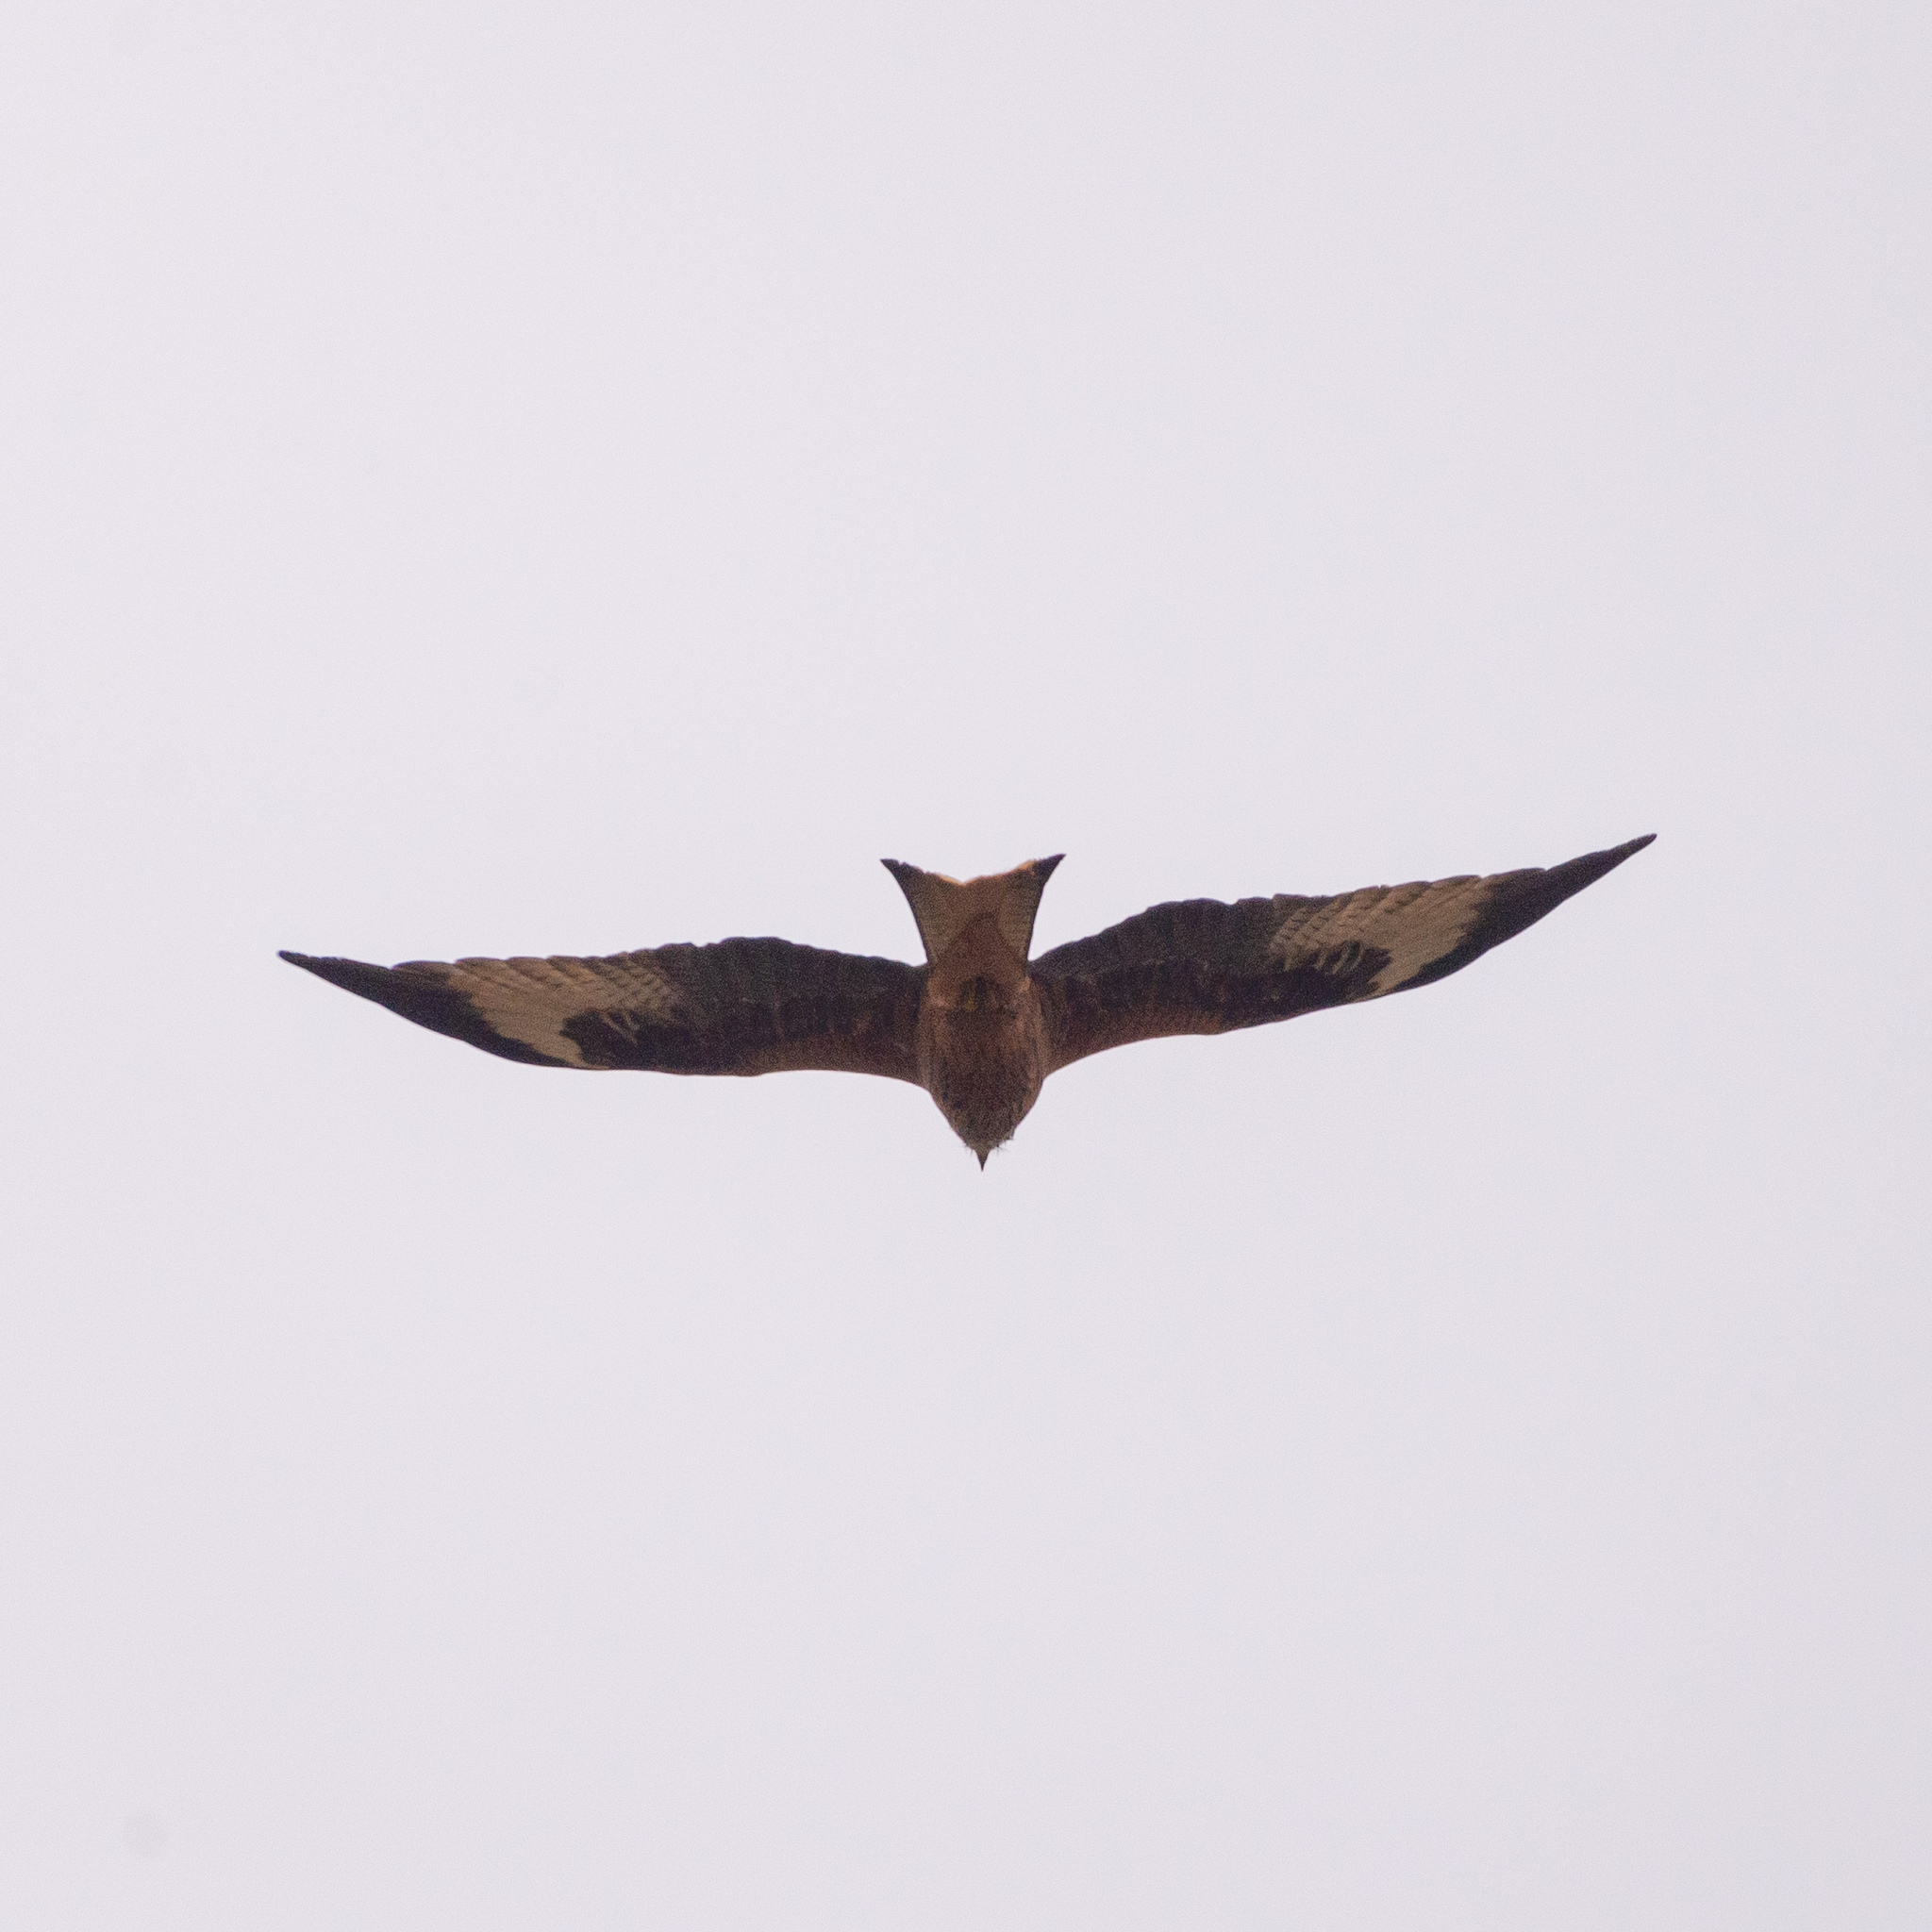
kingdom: Animalia
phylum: Chordata
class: Aves
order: Accipitriformes
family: Accipitridae
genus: Milvus
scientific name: Milvus milvus
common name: Red kite
